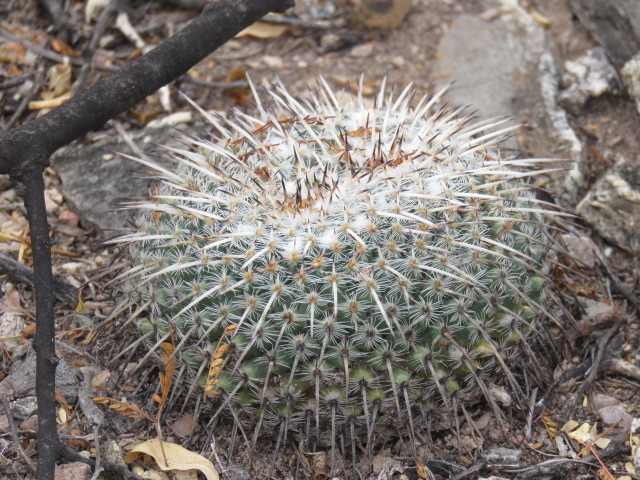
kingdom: Plantae
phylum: Tracheophyta
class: Magnoliopsida
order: Caryophyllales
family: Cactaceae
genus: Mammillaria
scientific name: Mammillaria parkinsonii
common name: Owl's-eye
